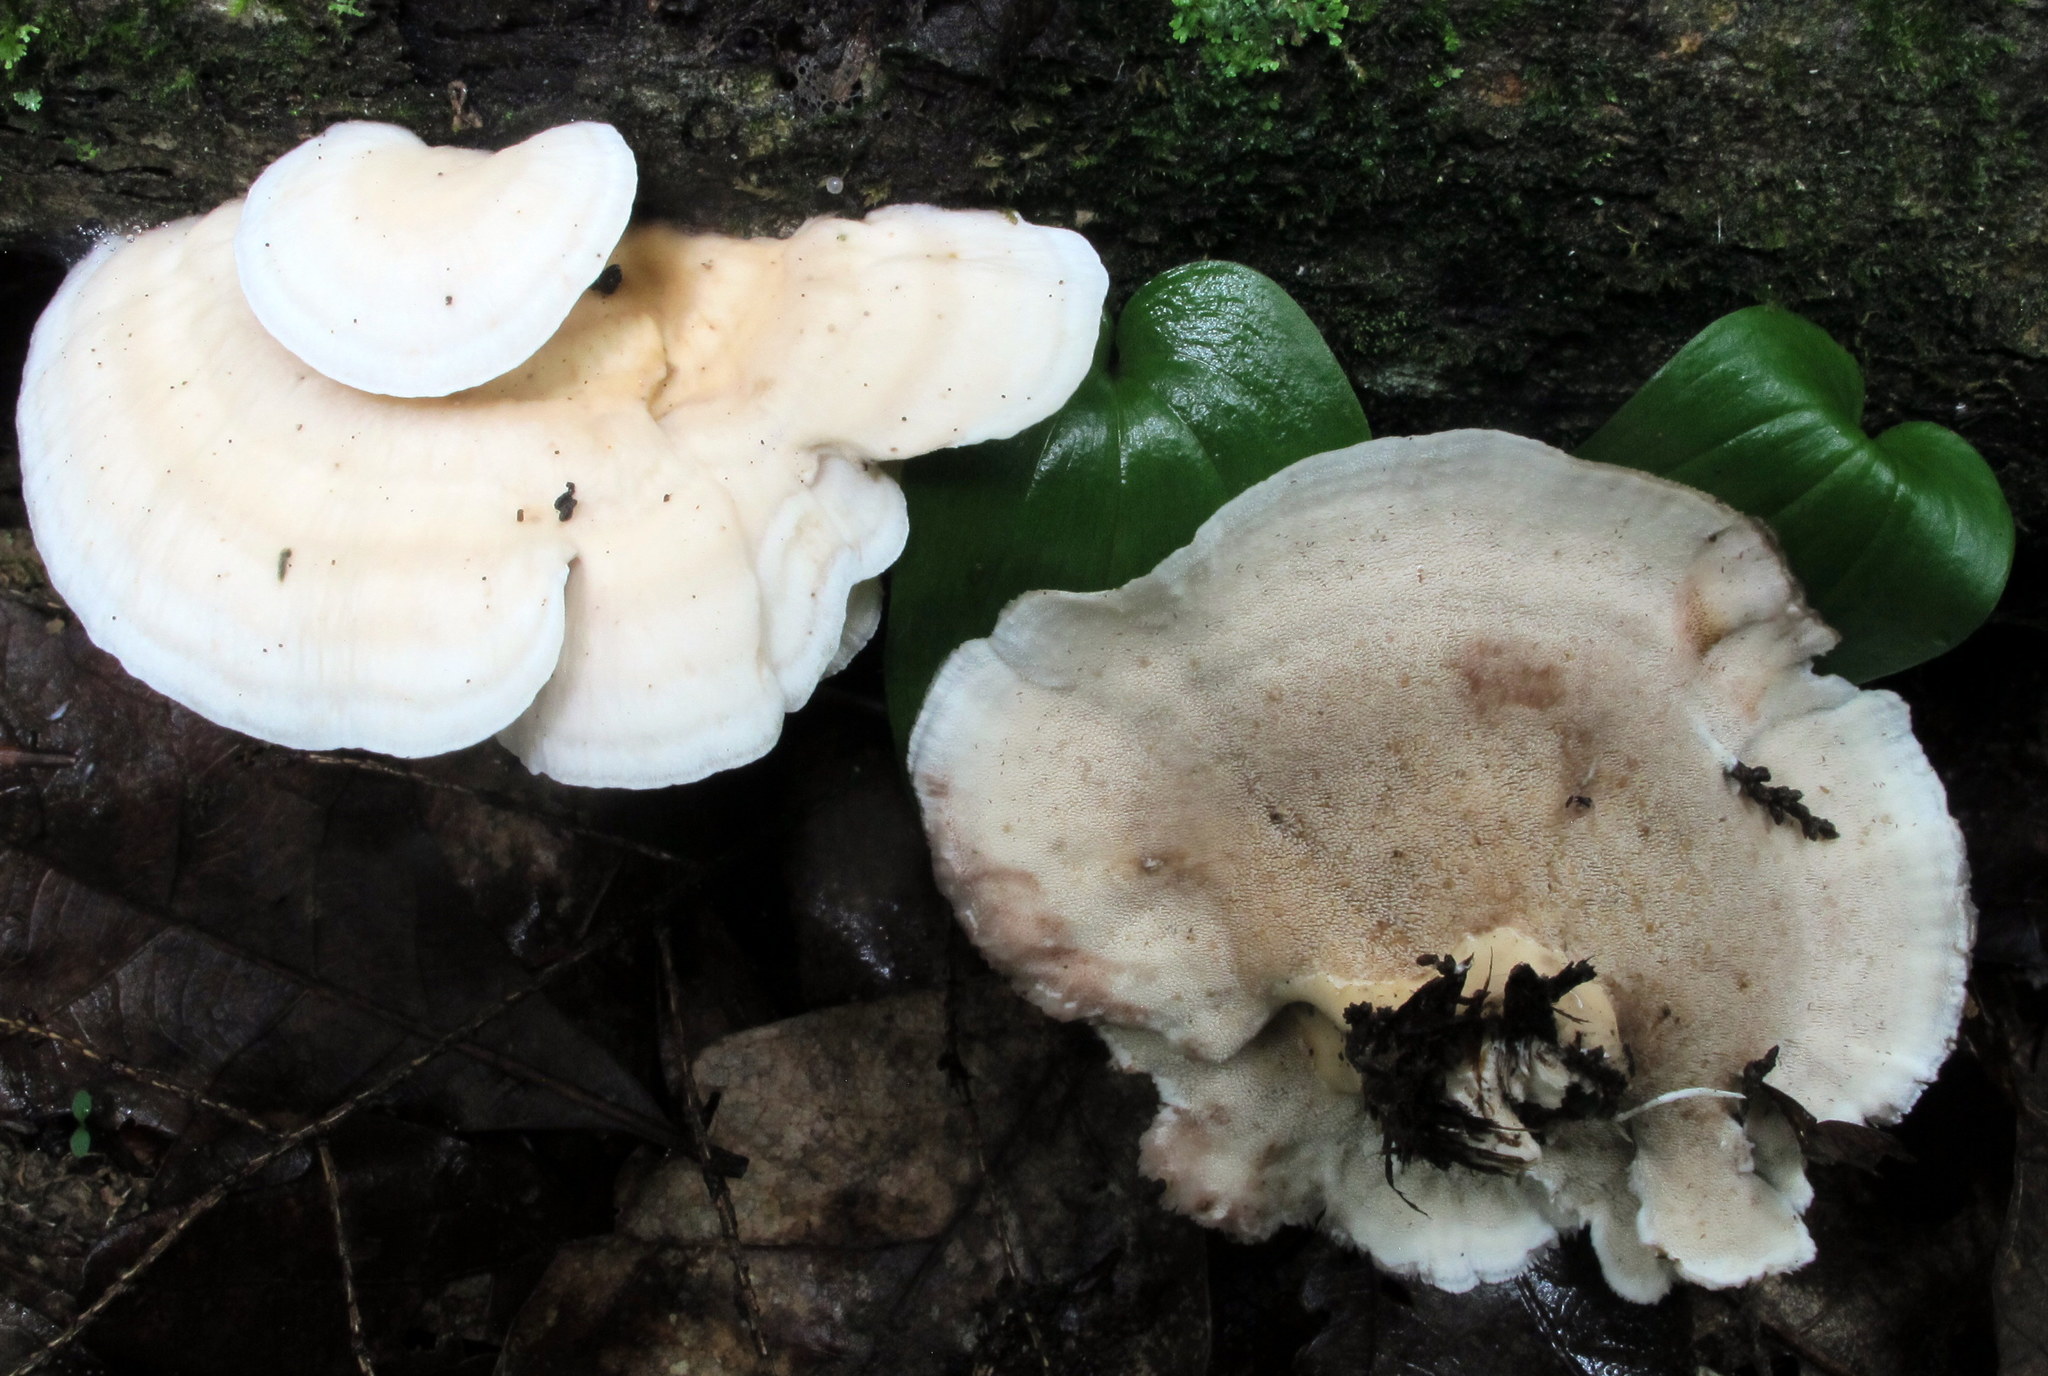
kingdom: Fungi
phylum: Basidiomycota
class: Agaricomycetes
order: Polyporales
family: Steccherinaceae
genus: Mycorrhaphium
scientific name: Mycorrhaphium adustum
